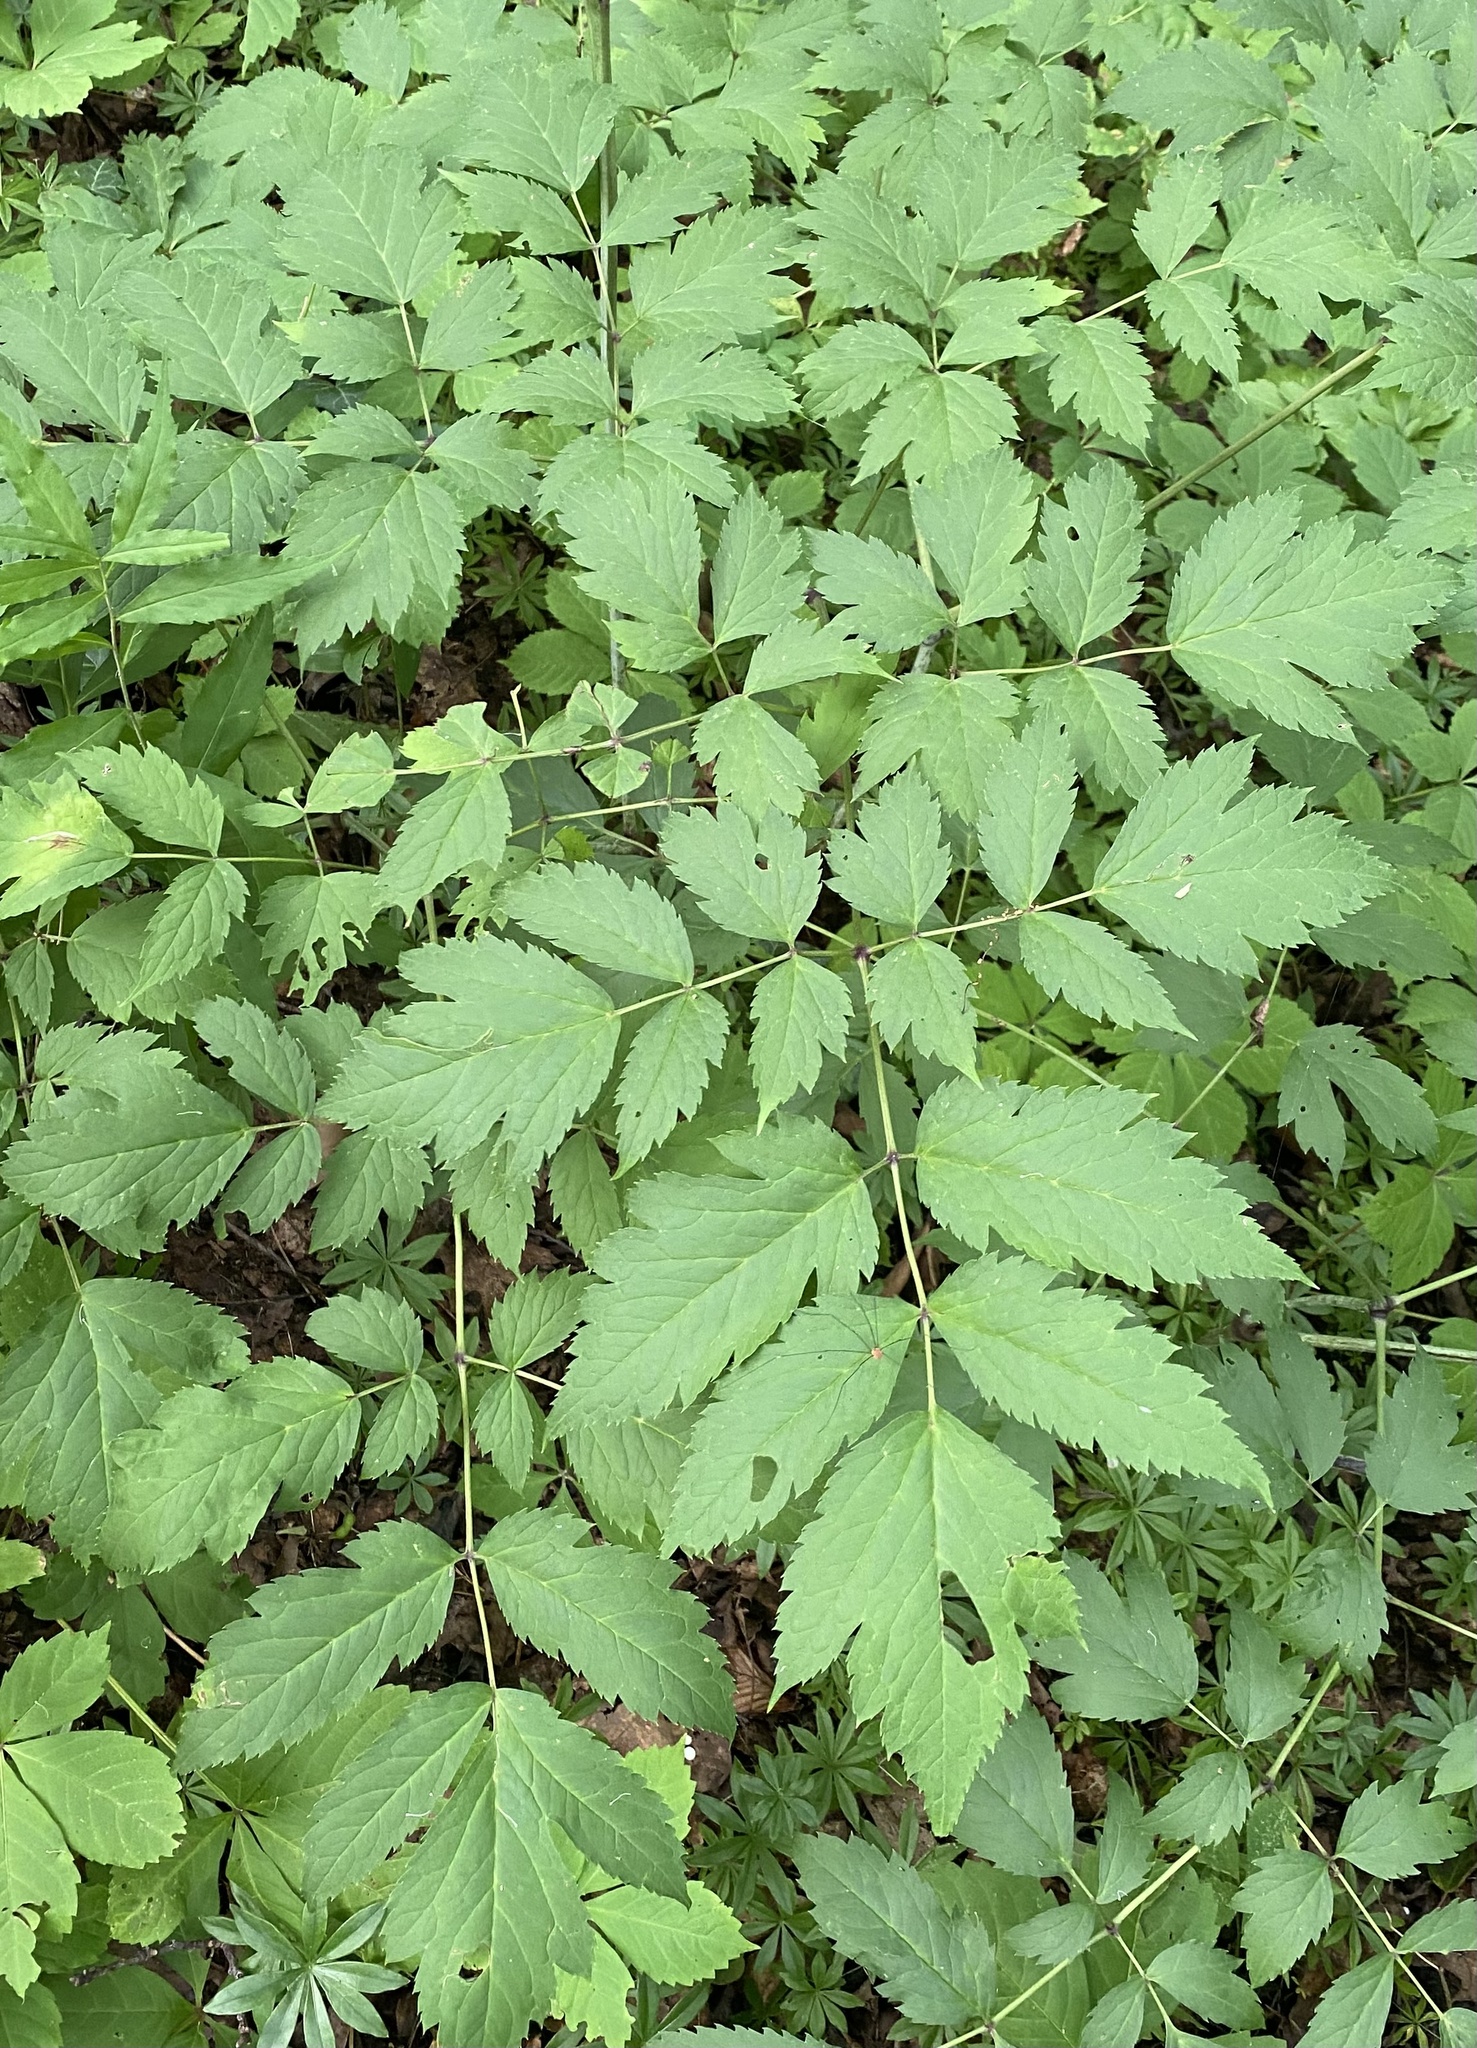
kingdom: Plantae
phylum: Tracheophyta
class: Magnoliopsida
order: Ranunculales
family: Ranunculaceae
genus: Actaea
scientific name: Actaea racemosa
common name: Black cohosh
